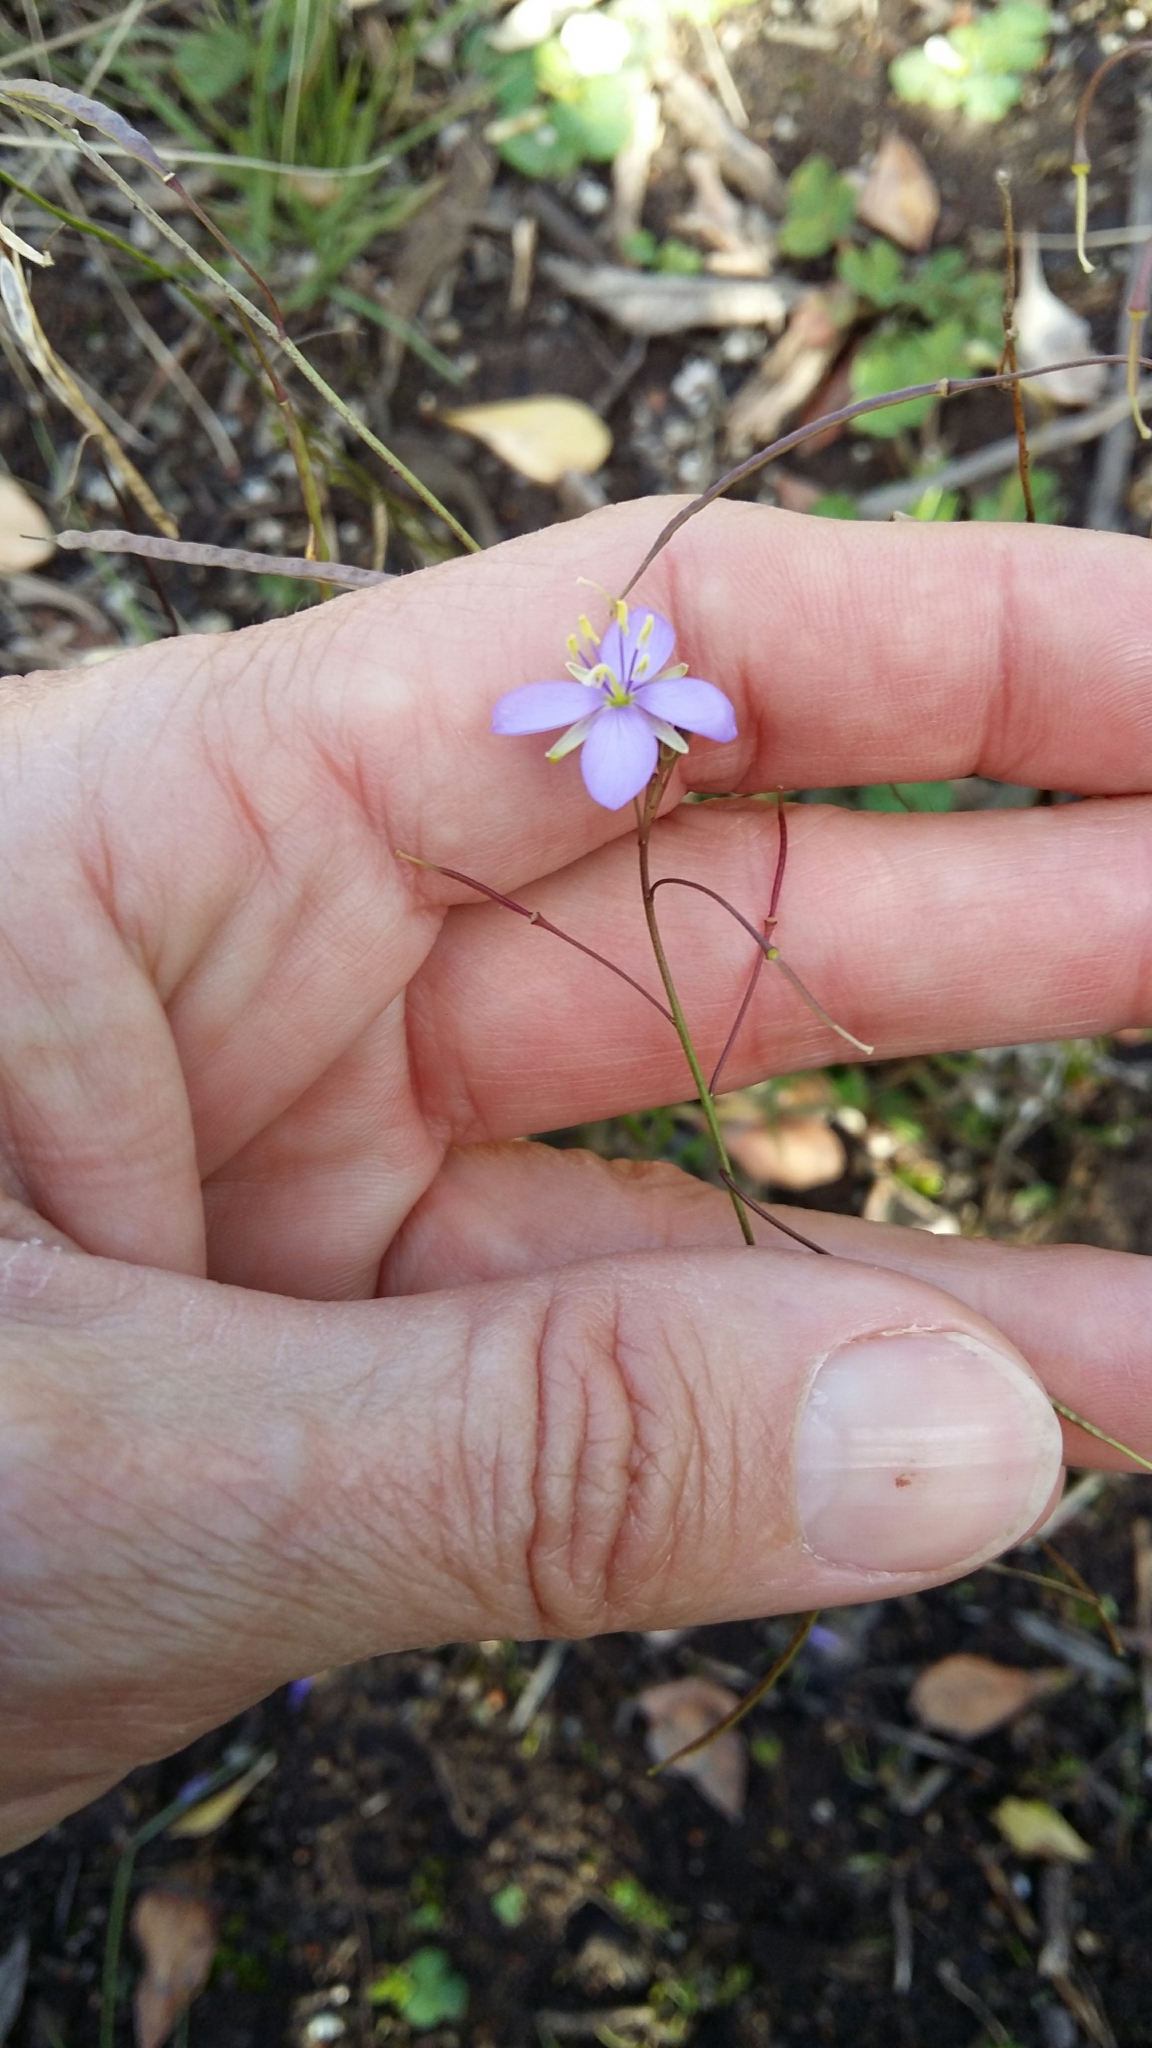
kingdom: Plantae
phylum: Tracheophyta
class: Magnoliopsida
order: Brassicales
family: Brassicaceae
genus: Heliophila
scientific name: Heliophila subulata
